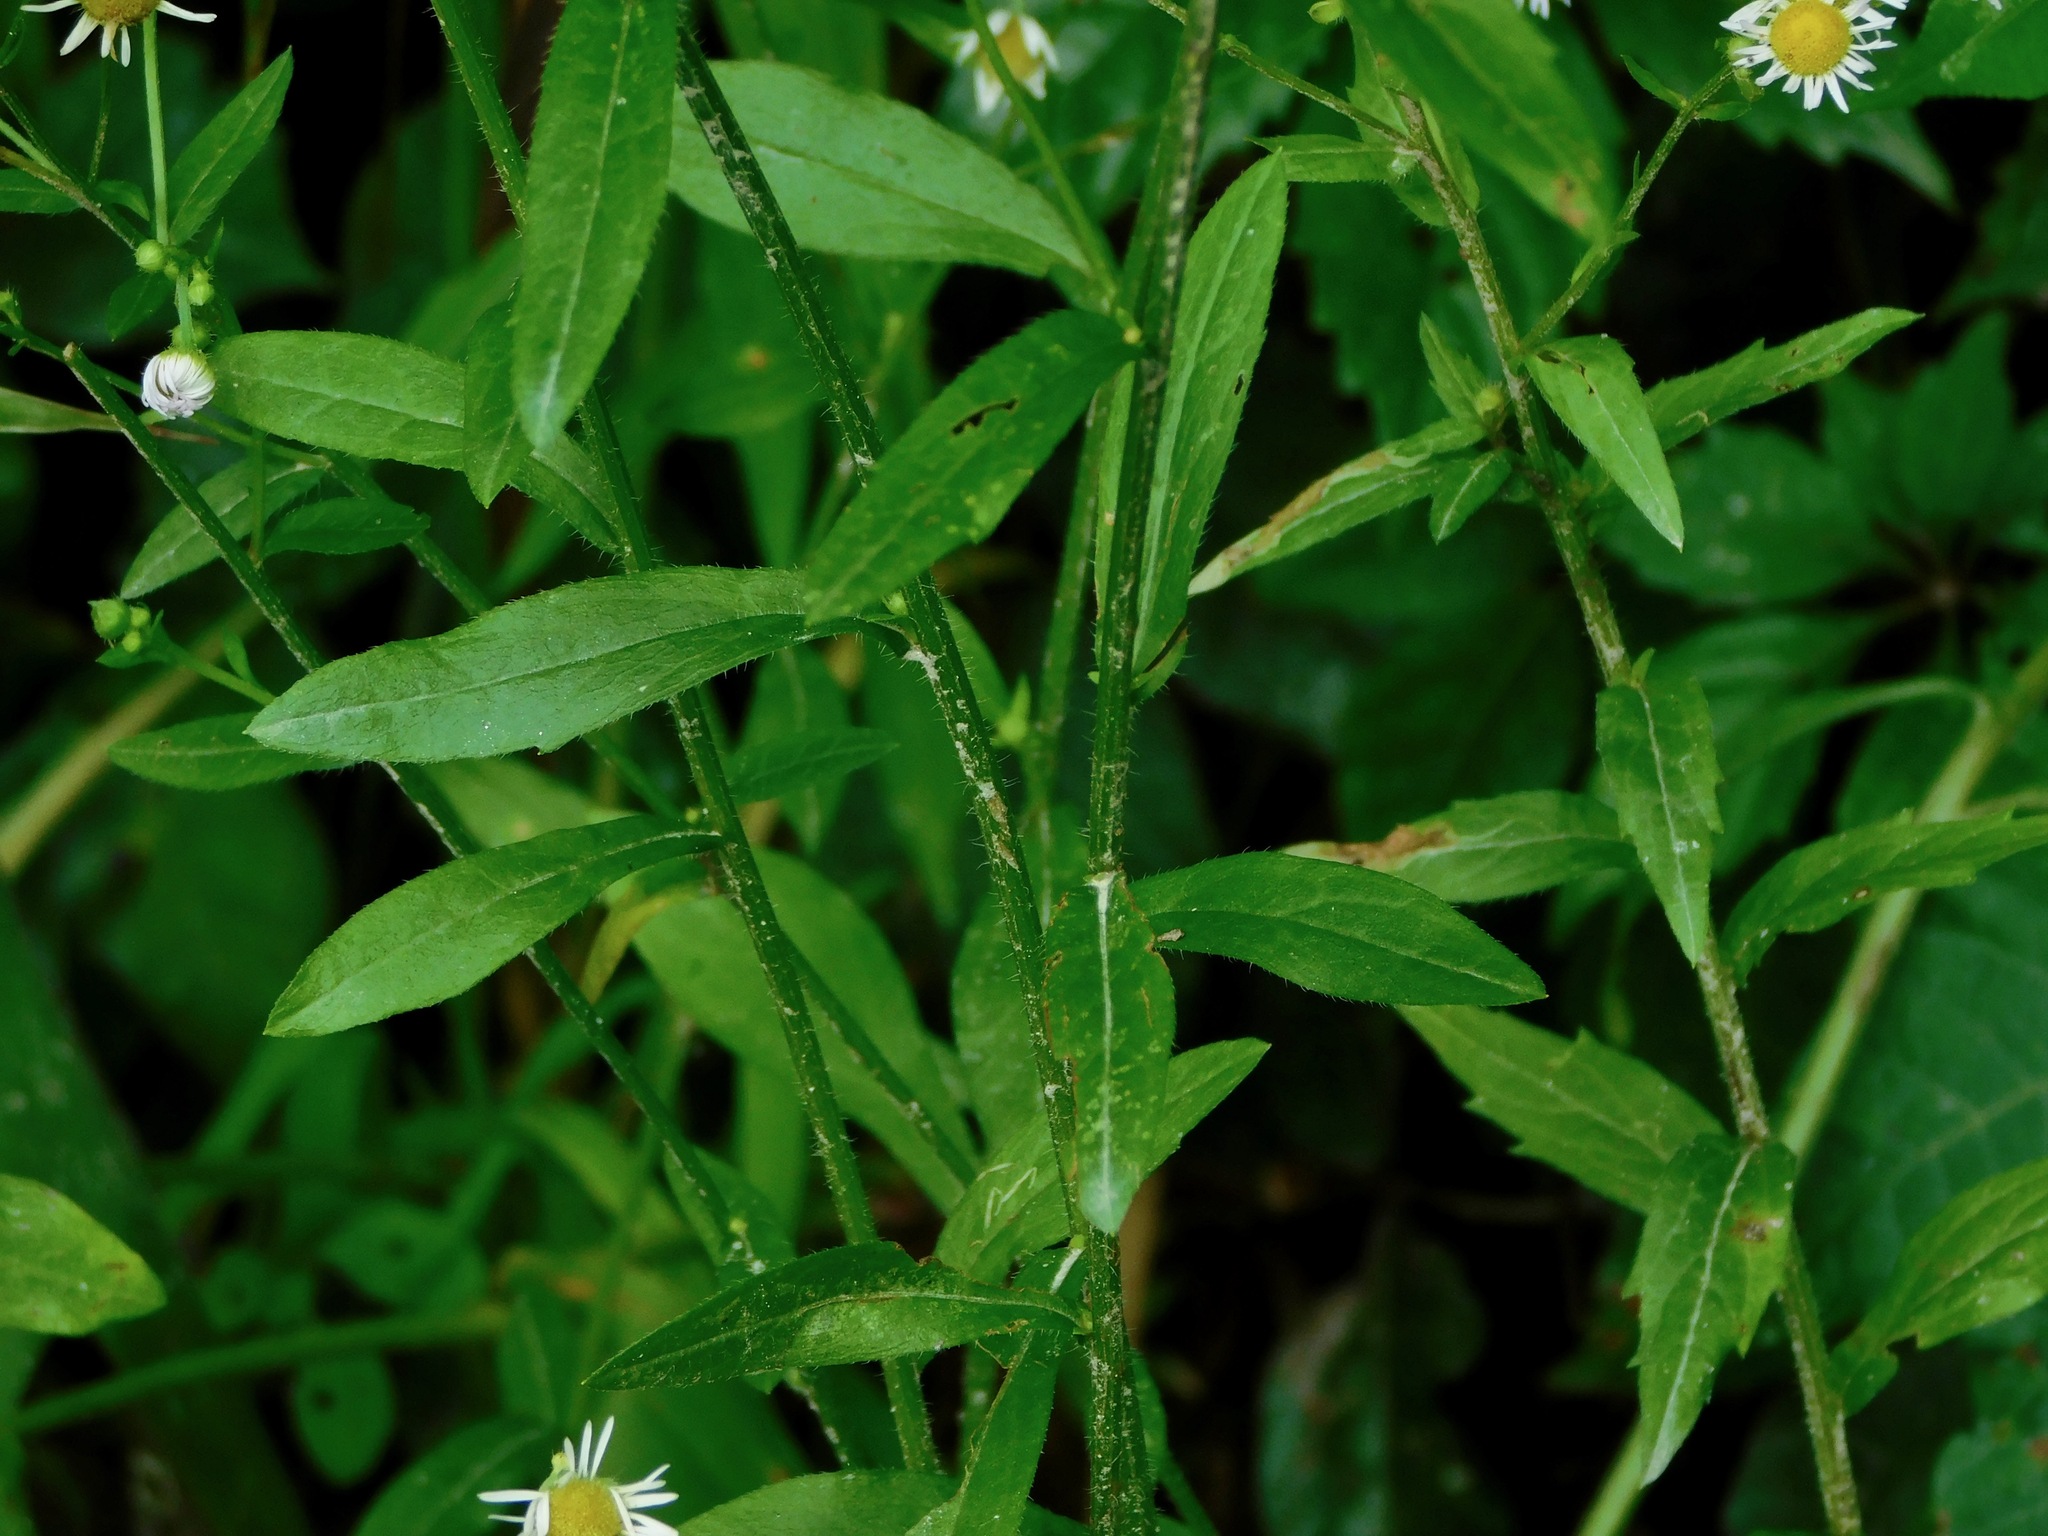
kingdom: Plantae
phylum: Tracheophyta
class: Magnoliopsida
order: Asterales
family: Asteraceae
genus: Erigeron
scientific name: Erigeron annuus
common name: Tall fleabane
